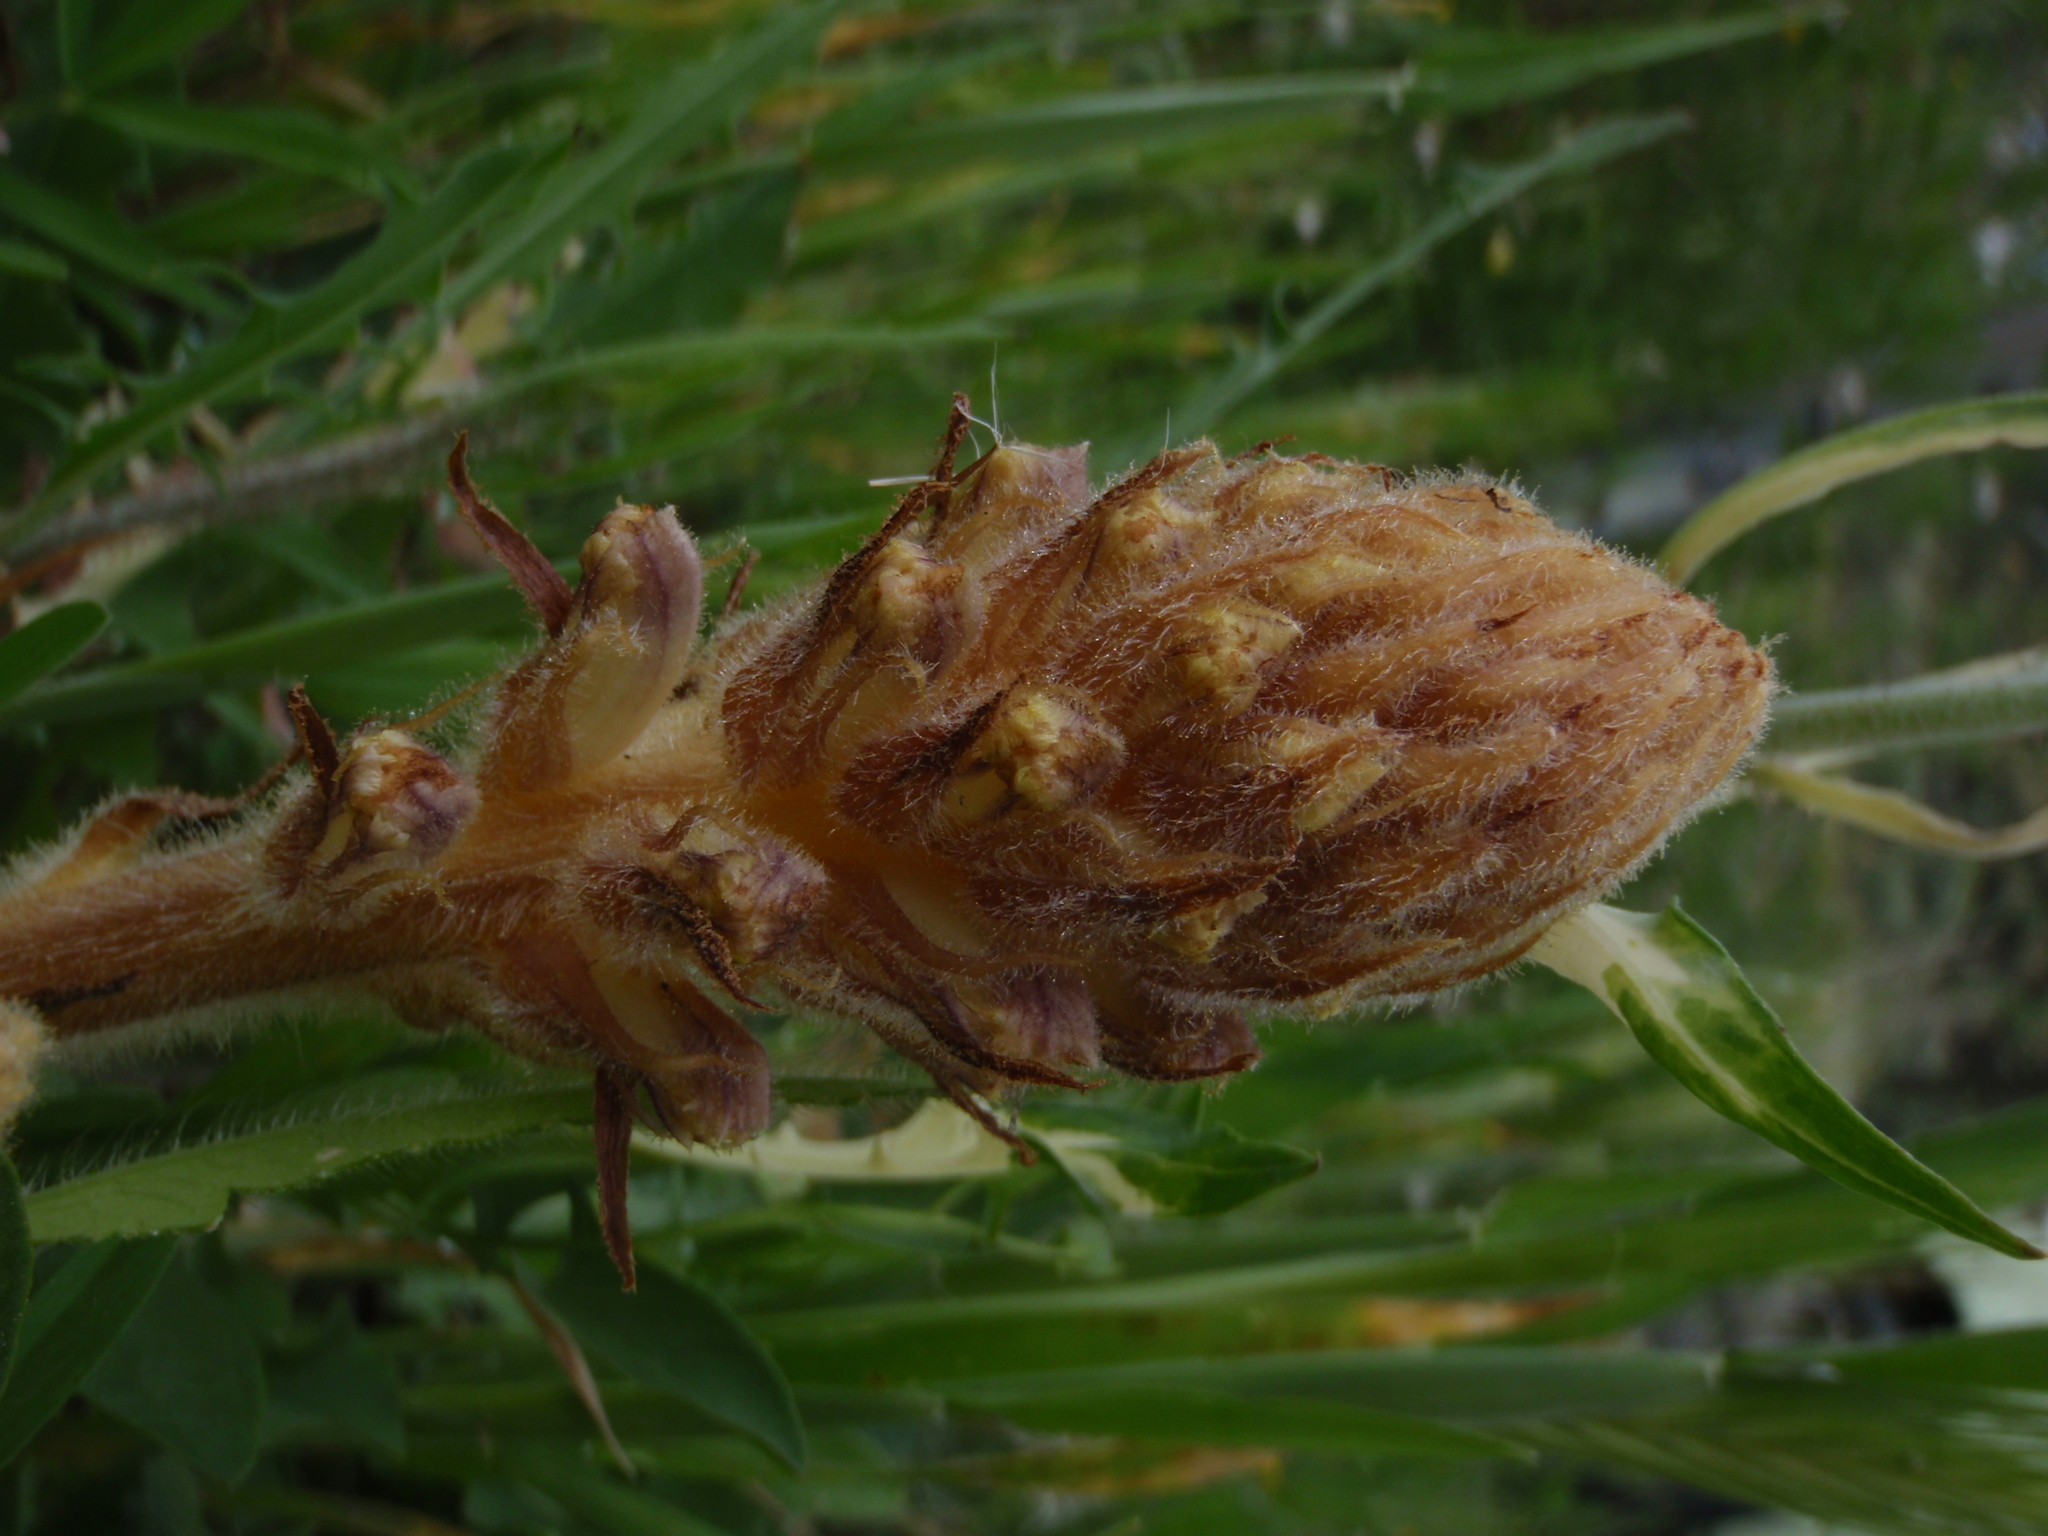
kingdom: Plantae
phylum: Tracheophyta
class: Magnoliopsida
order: Lamiales
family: Orobanchaceae
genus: Orobanche
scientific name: Orobanche minor
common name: Common broomrape
